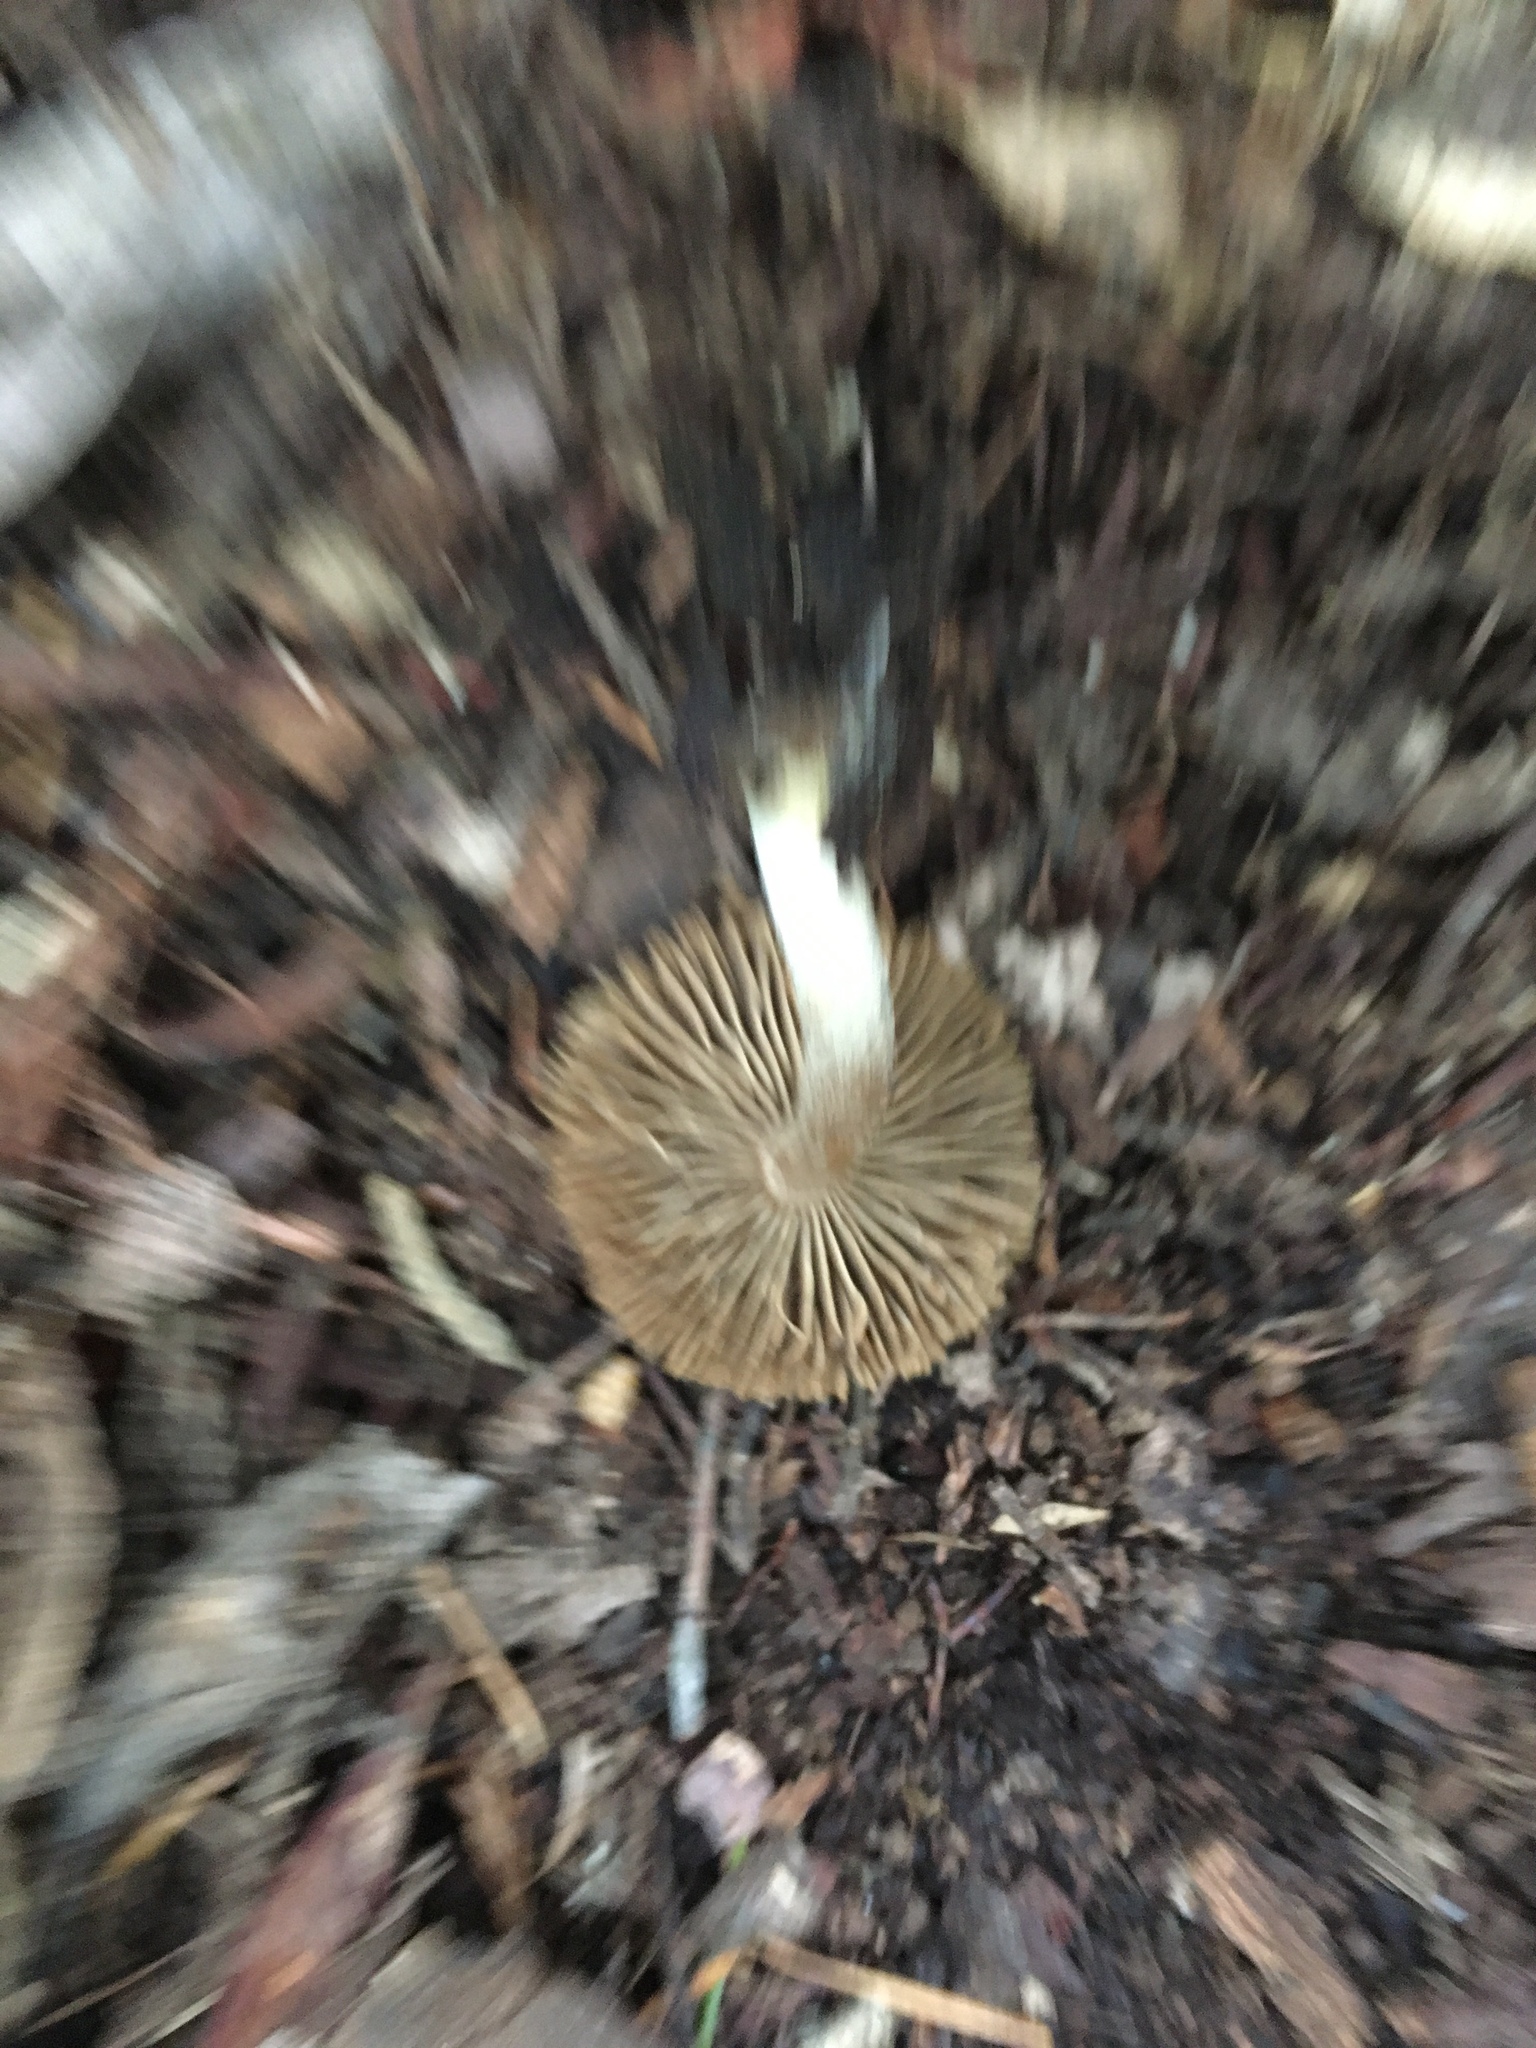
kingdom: Fungi
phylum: Basidiomycota
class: Agaricomycetes
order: Agaricales
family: Inocybaceae
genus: Pseudosperma
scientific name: Pseudosperma sororium
